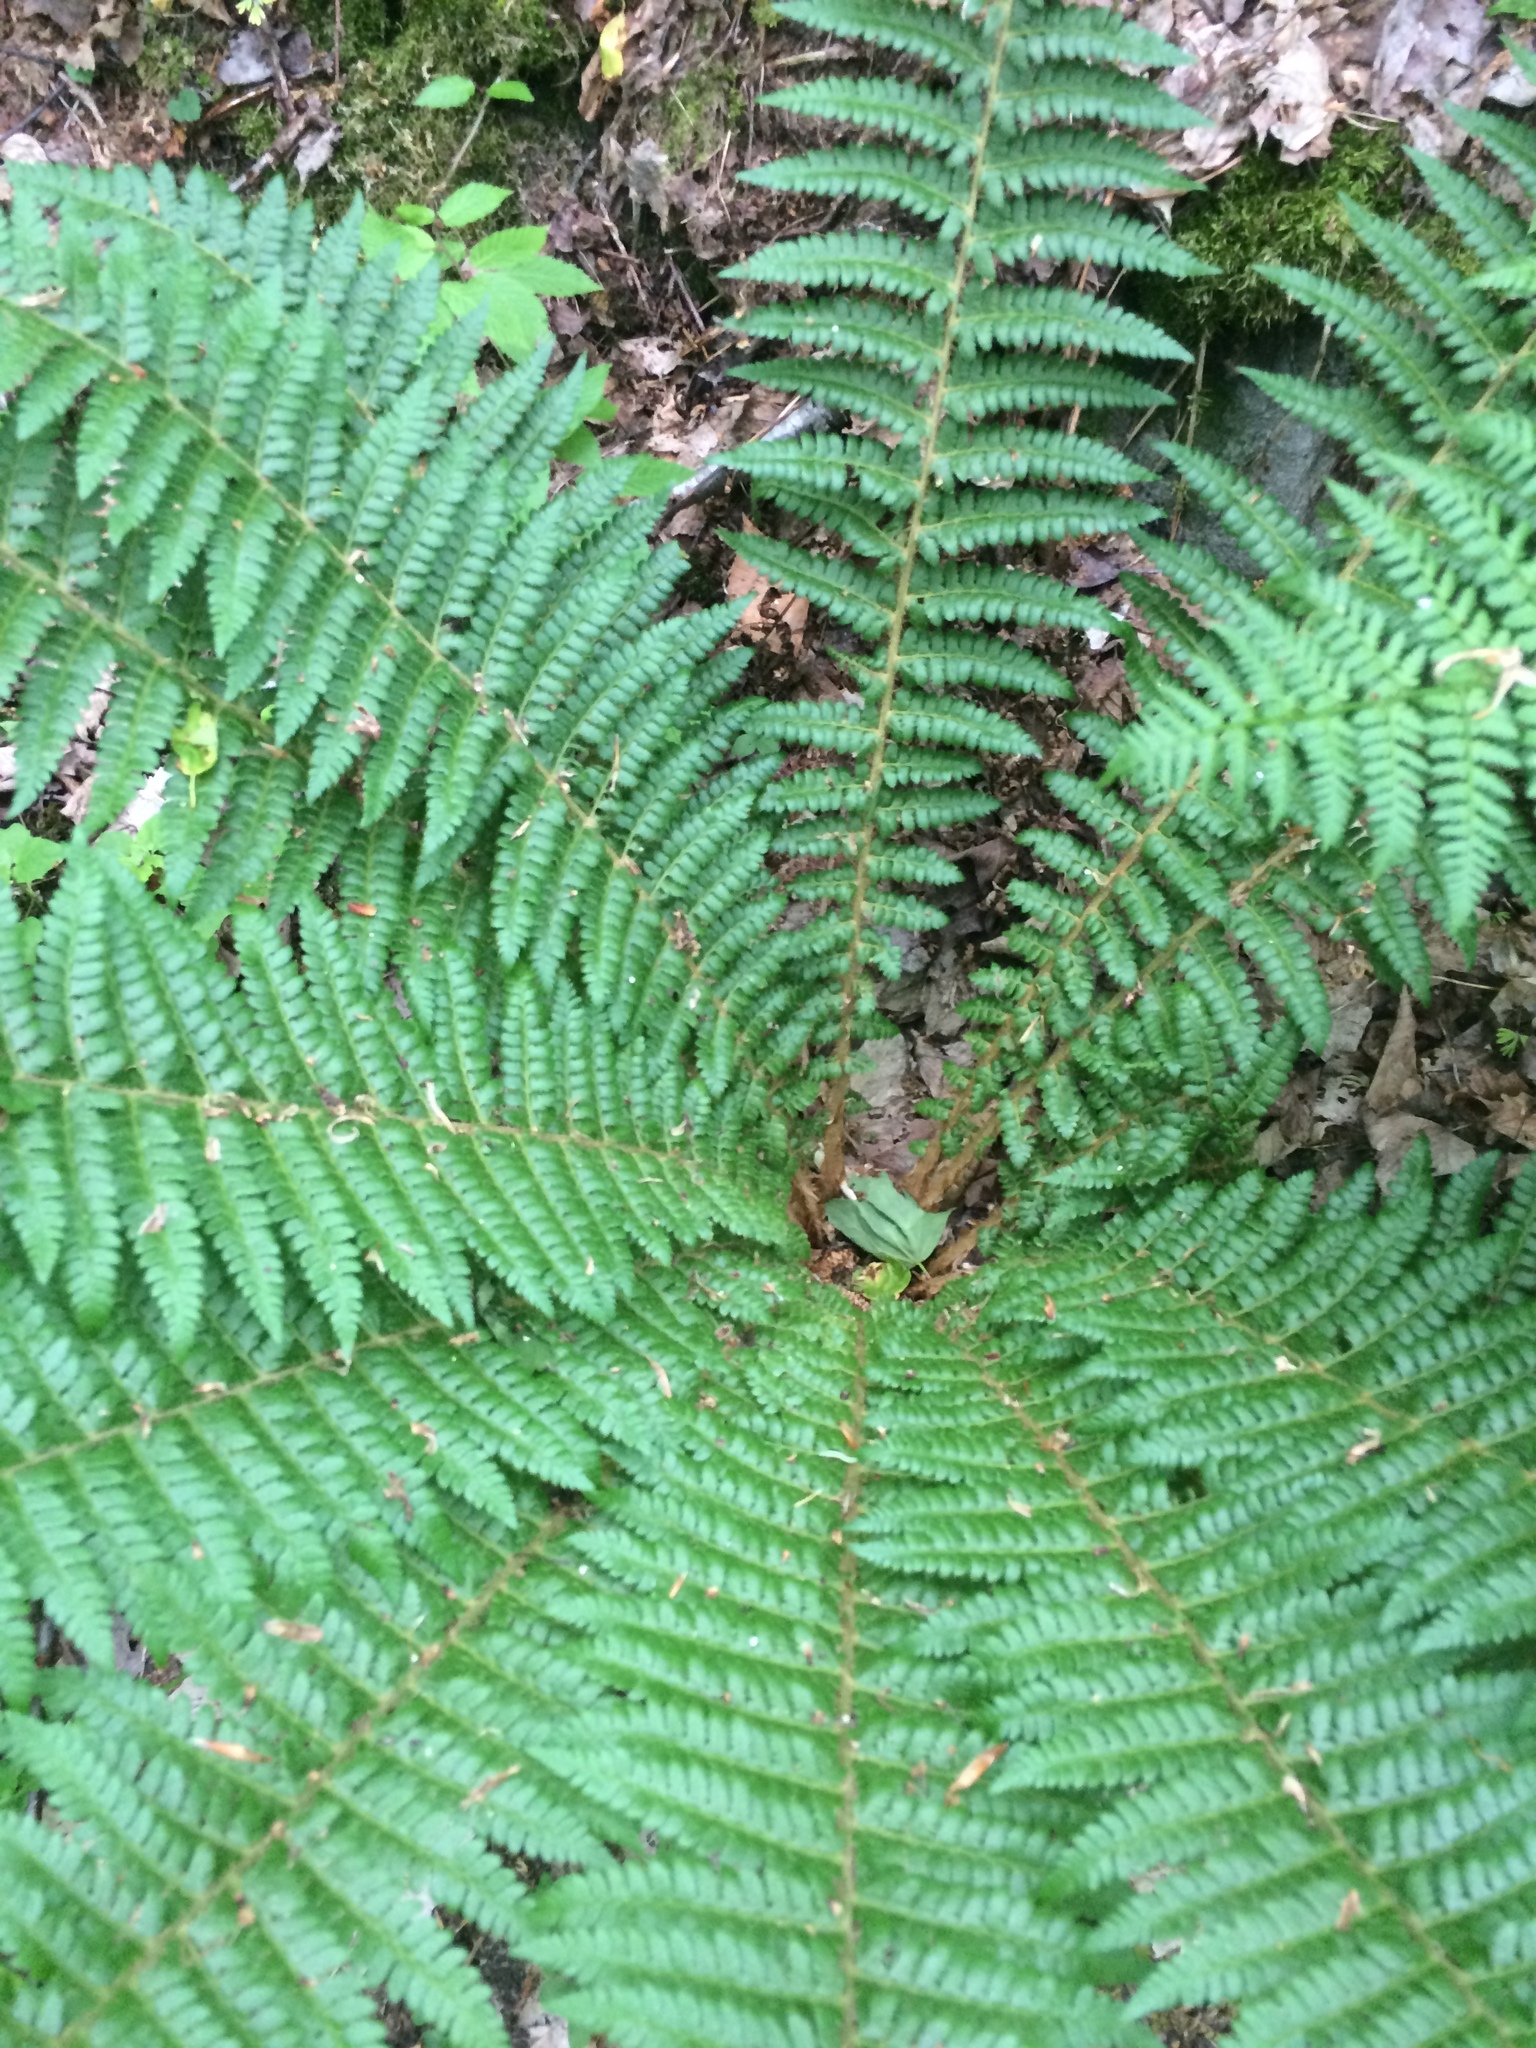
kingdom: Plantae
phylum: Tracheophyta
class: Polypodiopsida
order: Polypodiales
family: Dryopteridaceae
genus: Polystichum
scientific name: Polystichum braunii
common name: Braun's holly fern
